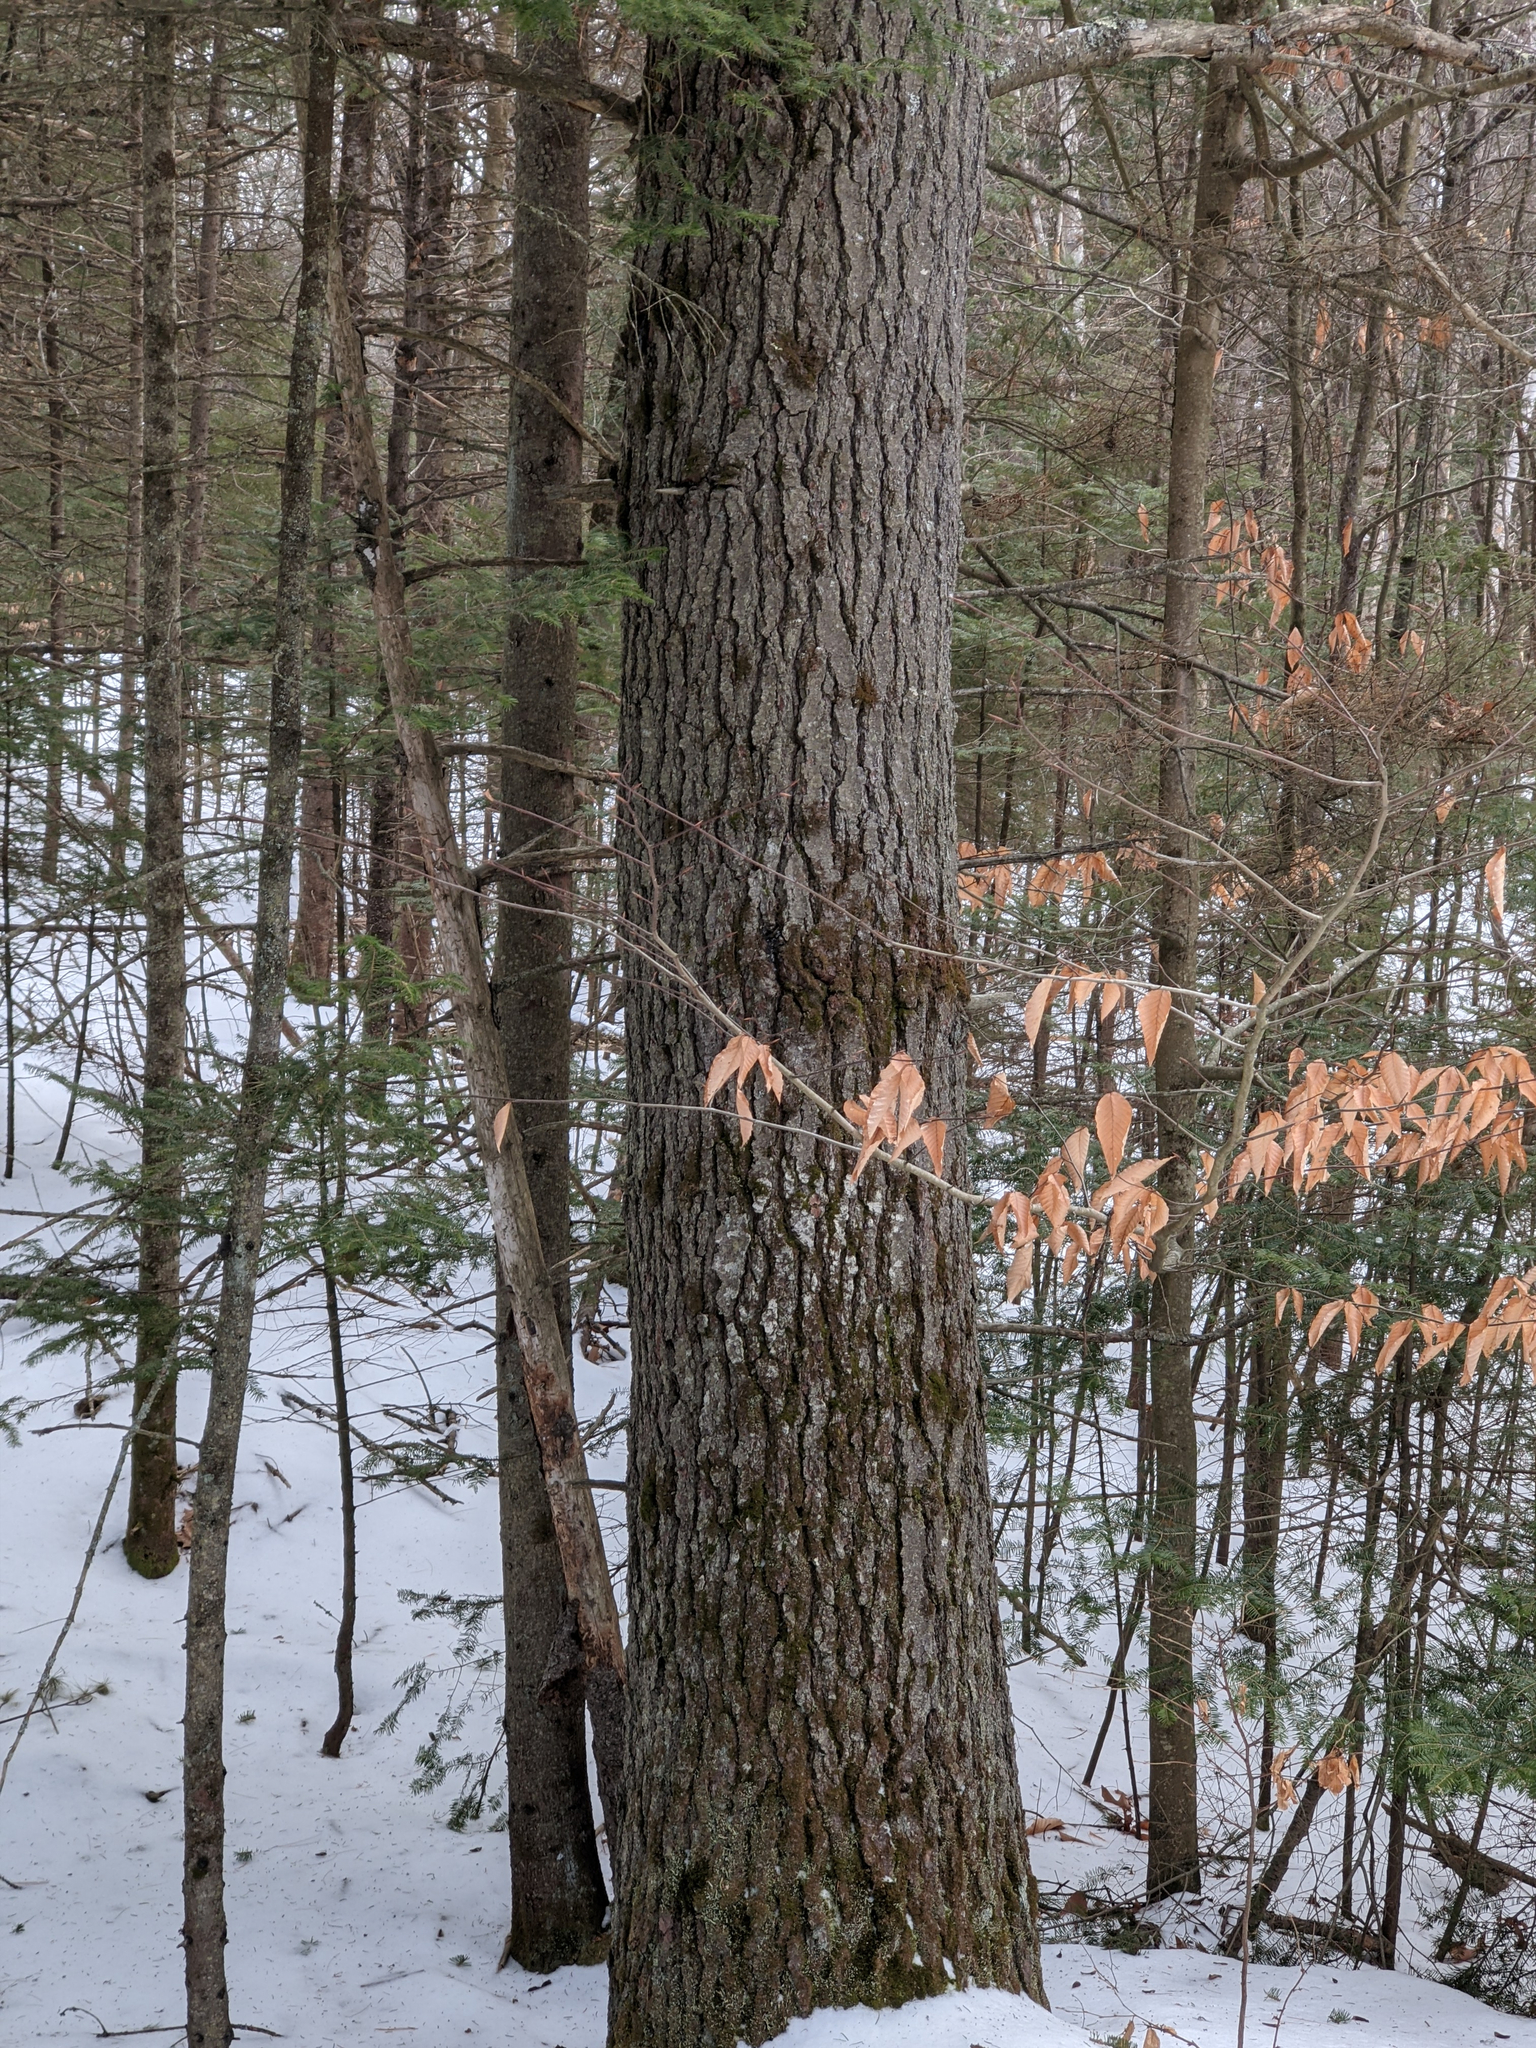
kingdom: Plantae
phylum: Tracheophyta
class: Pinopsida
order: Pinales
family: Pinaceae
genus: Pinus
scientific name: Pinus strobus
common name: Weymouth pine
